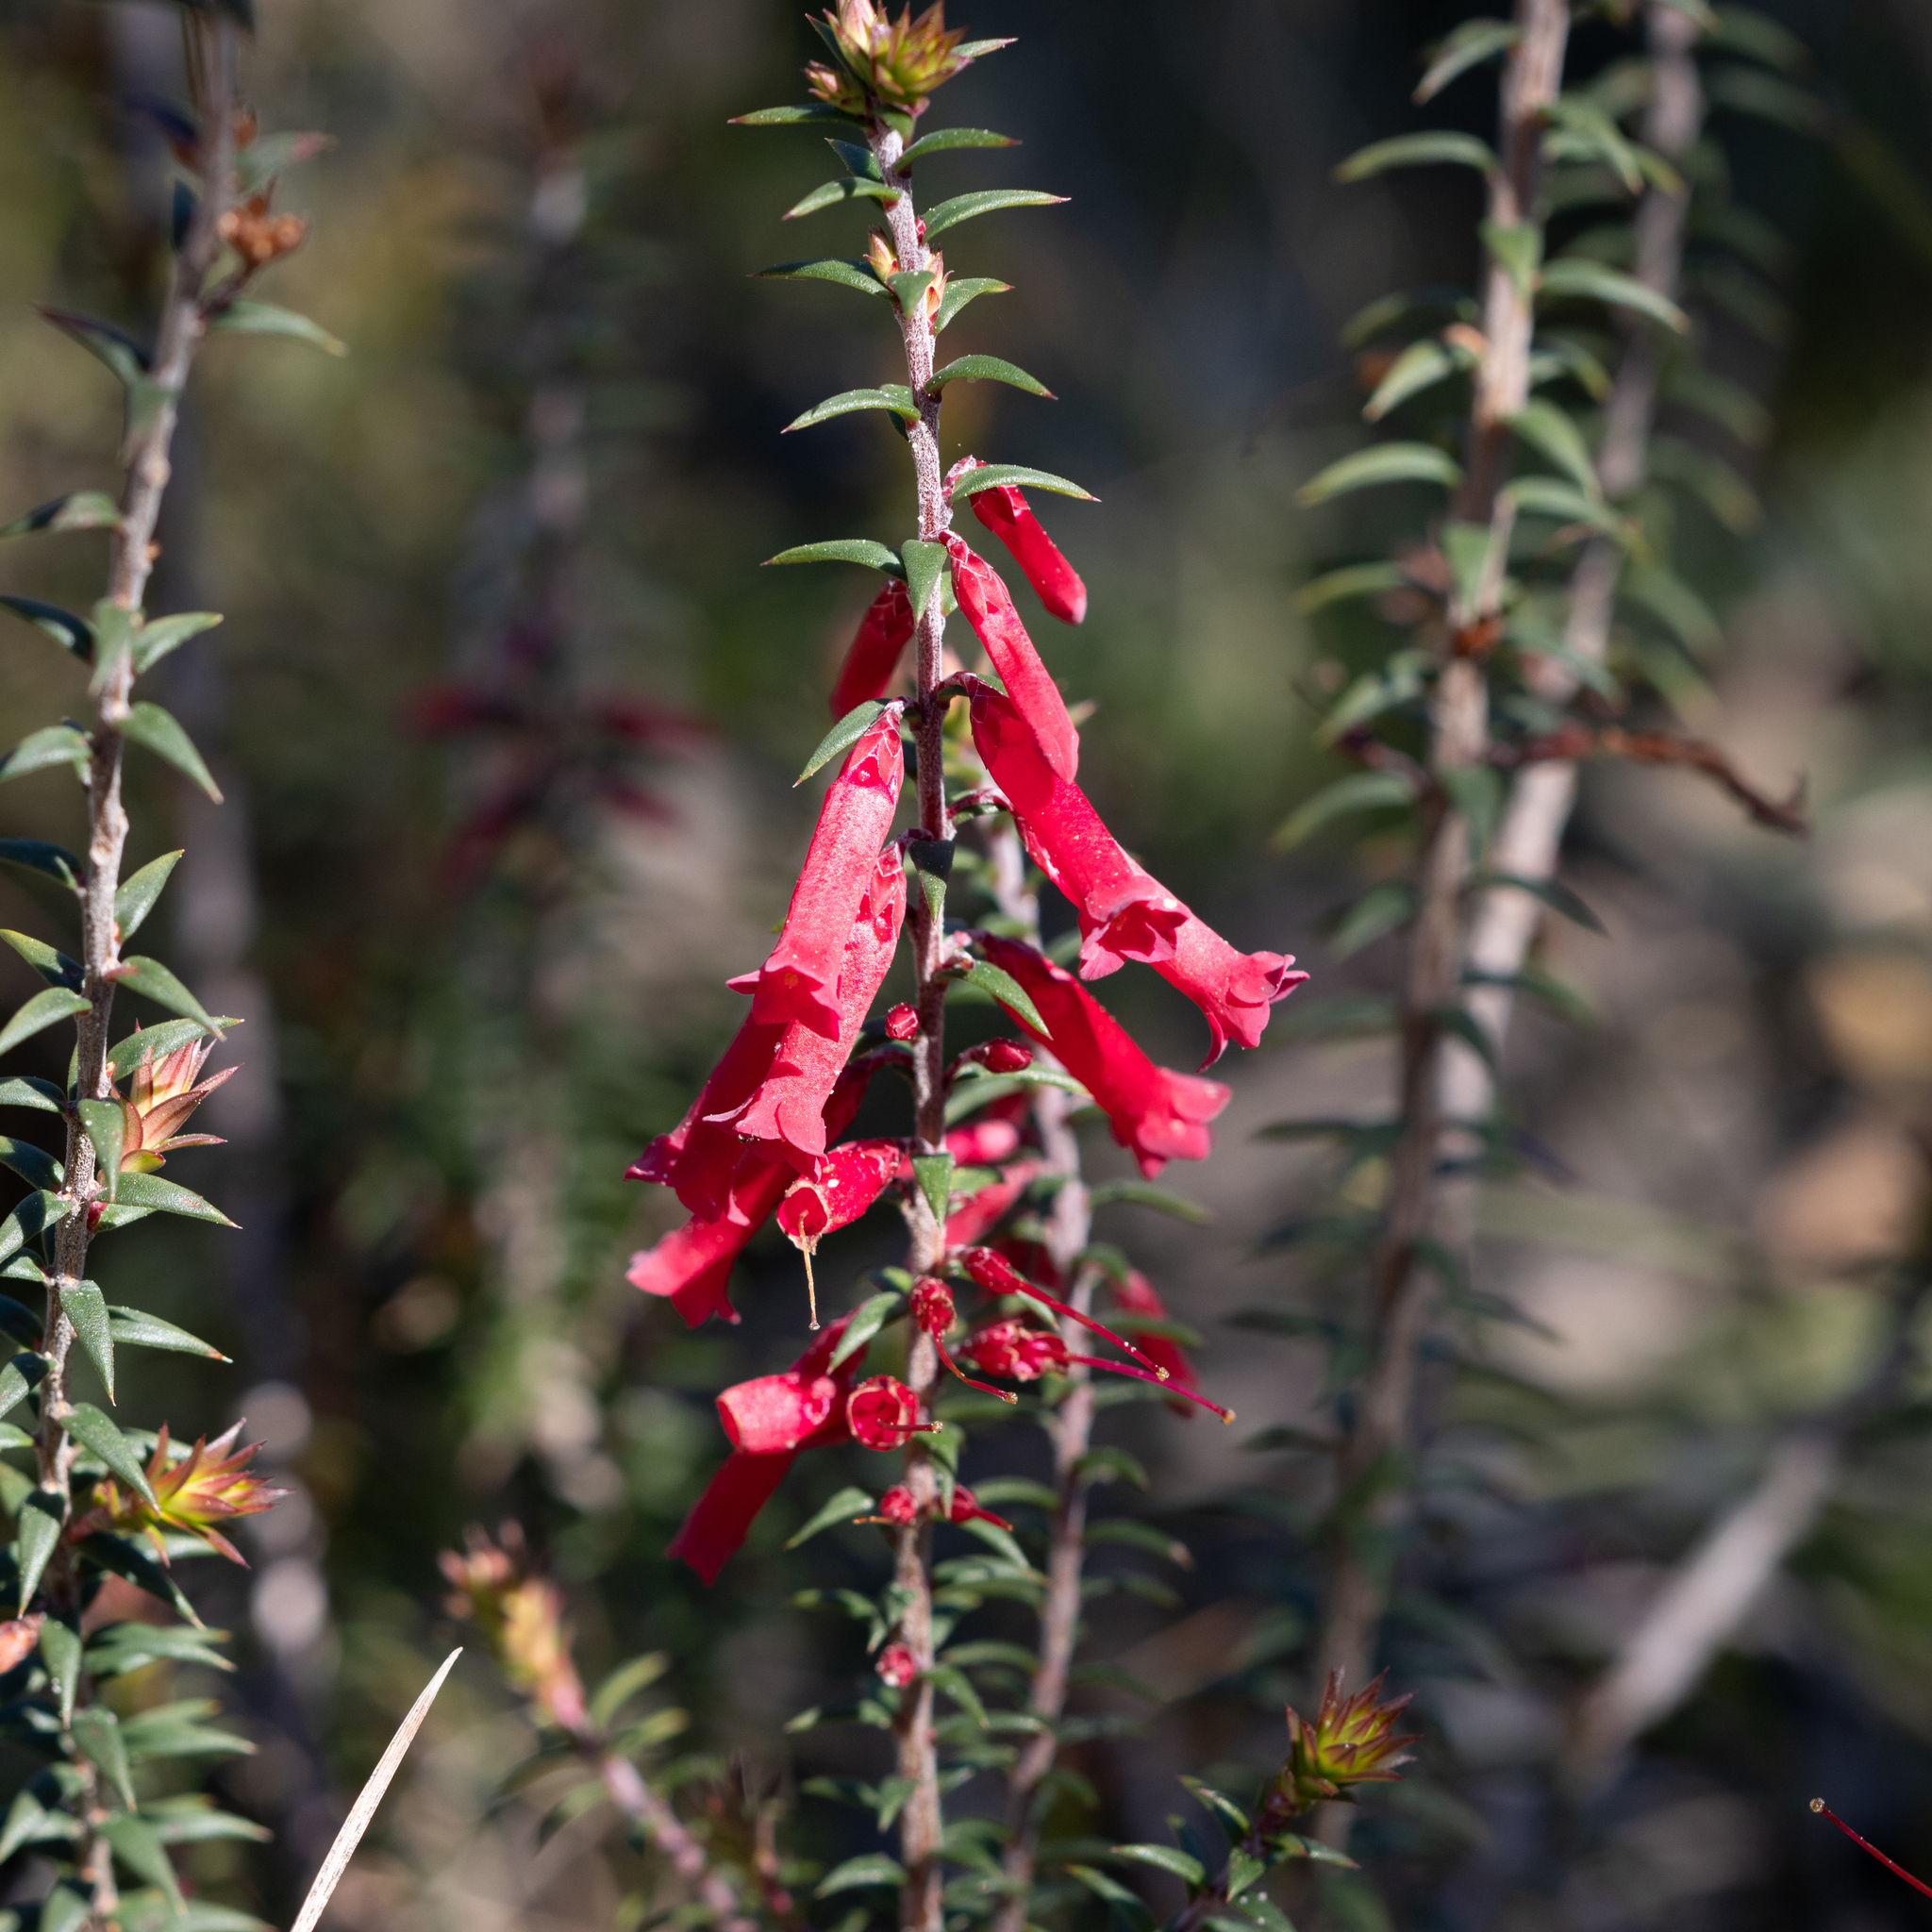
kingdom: Plantae
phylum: Tracheophyta
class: Magnoliopsida
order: Ericales
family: Ericaceae
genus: Epacris
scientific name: Epacris impressa
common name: Common-heath
